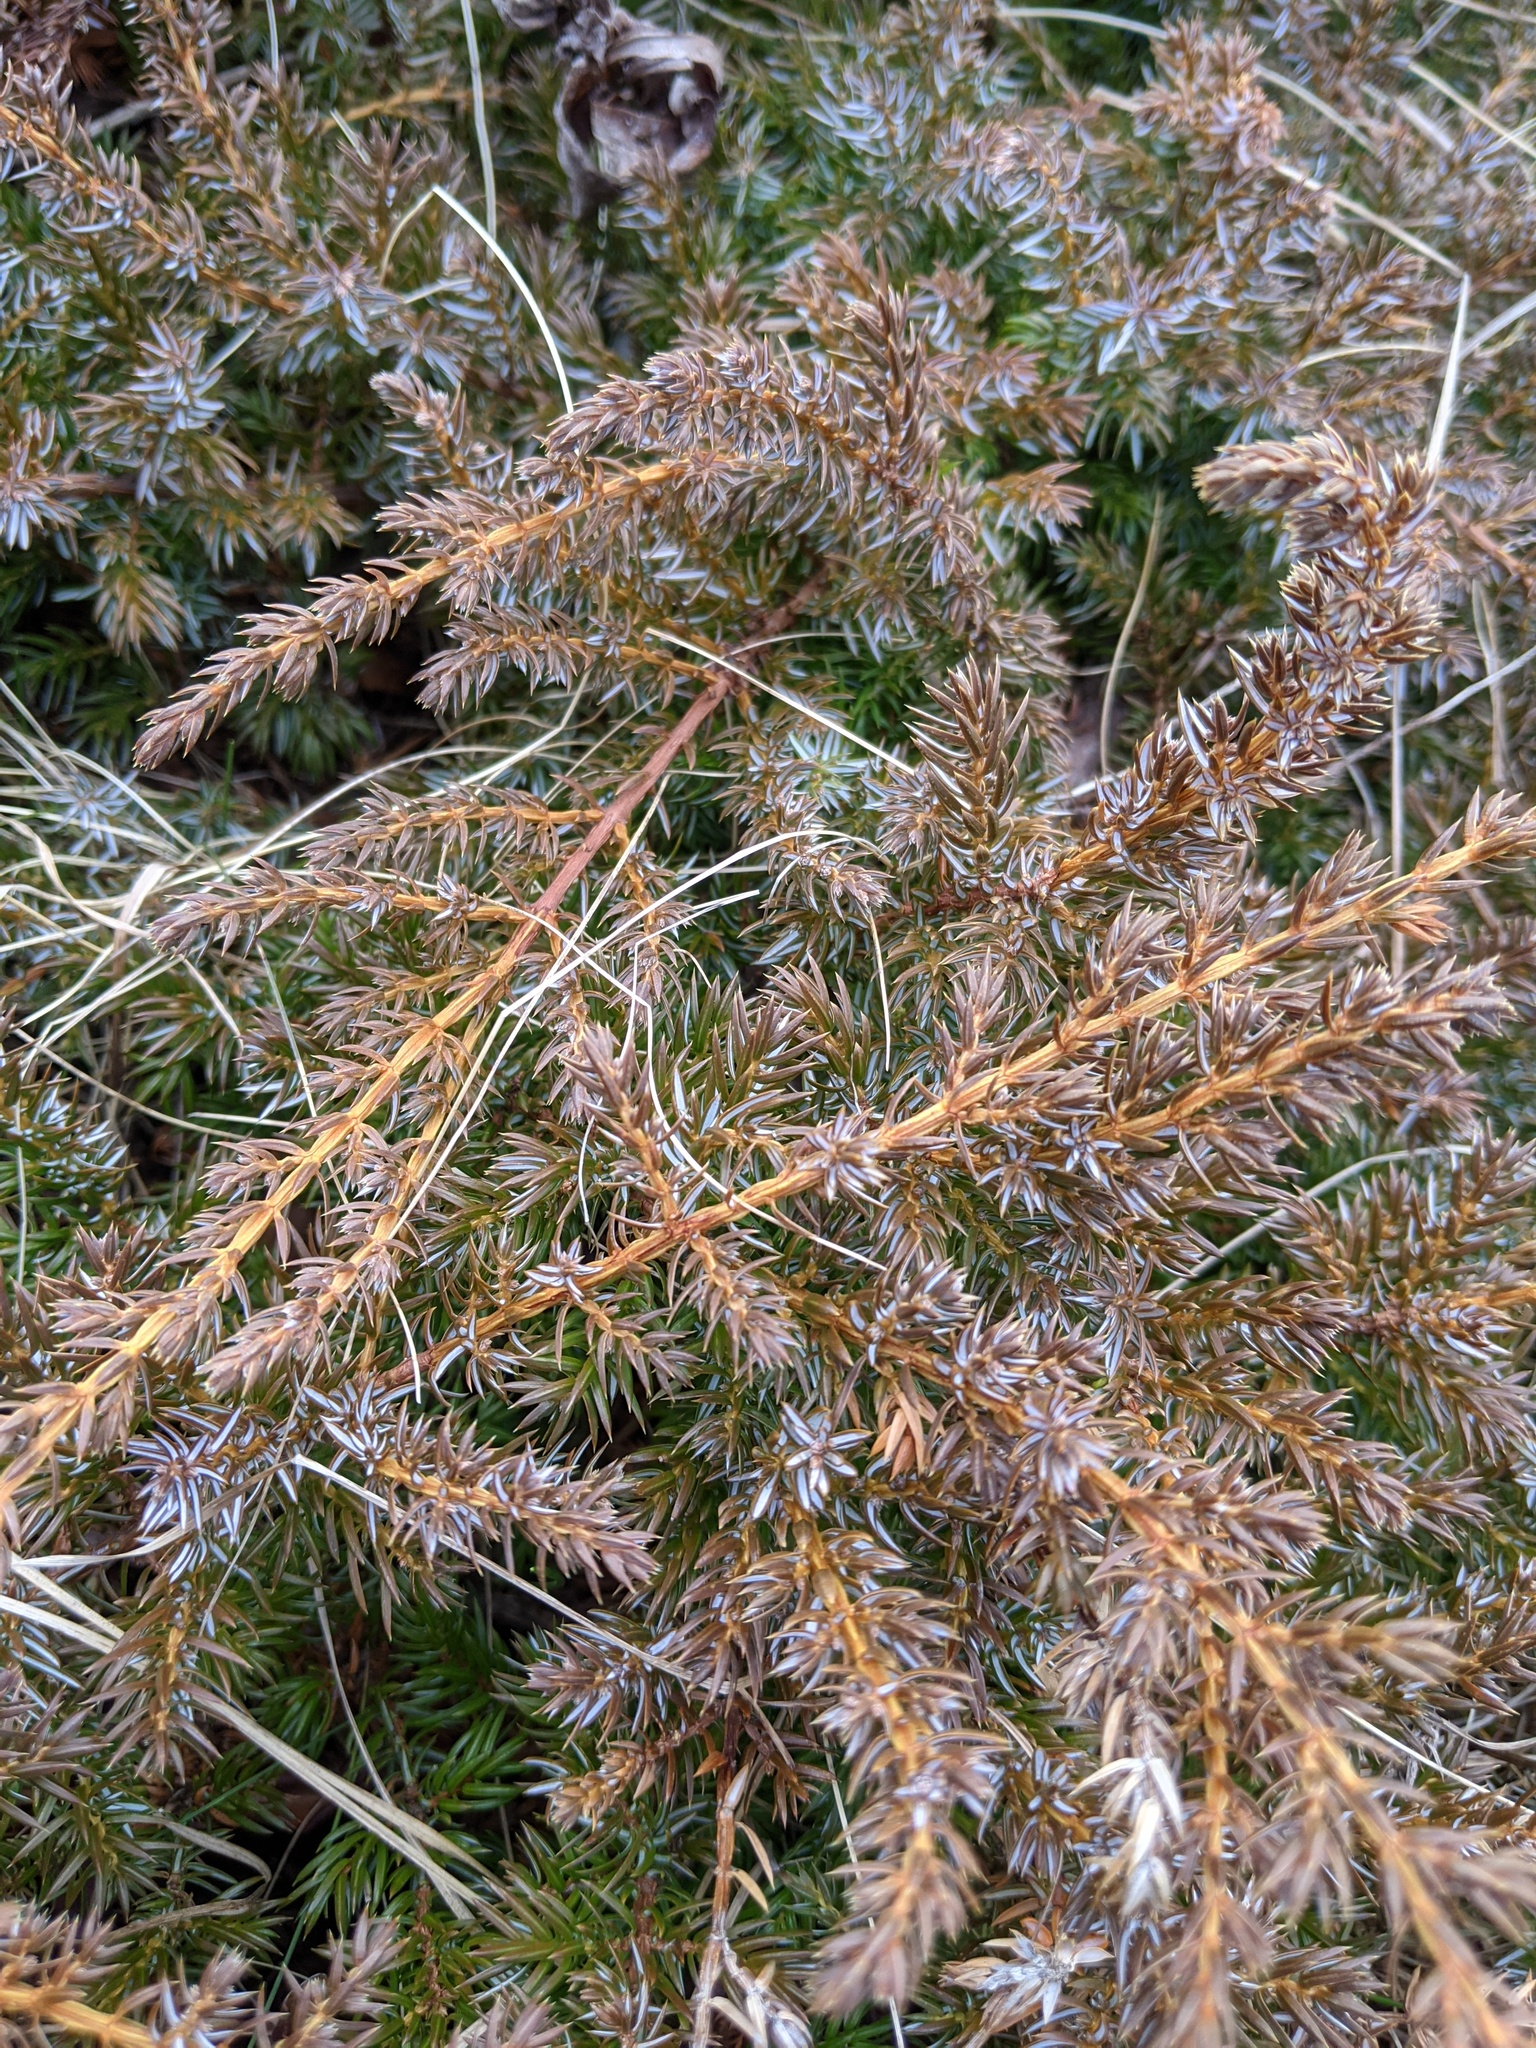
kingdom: Plantae
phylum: Tracheophyta
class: Pinopsida
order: Pinales
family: Cupressaceae
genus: Juniperus
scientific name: Juniperus communis
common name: Common juniper
